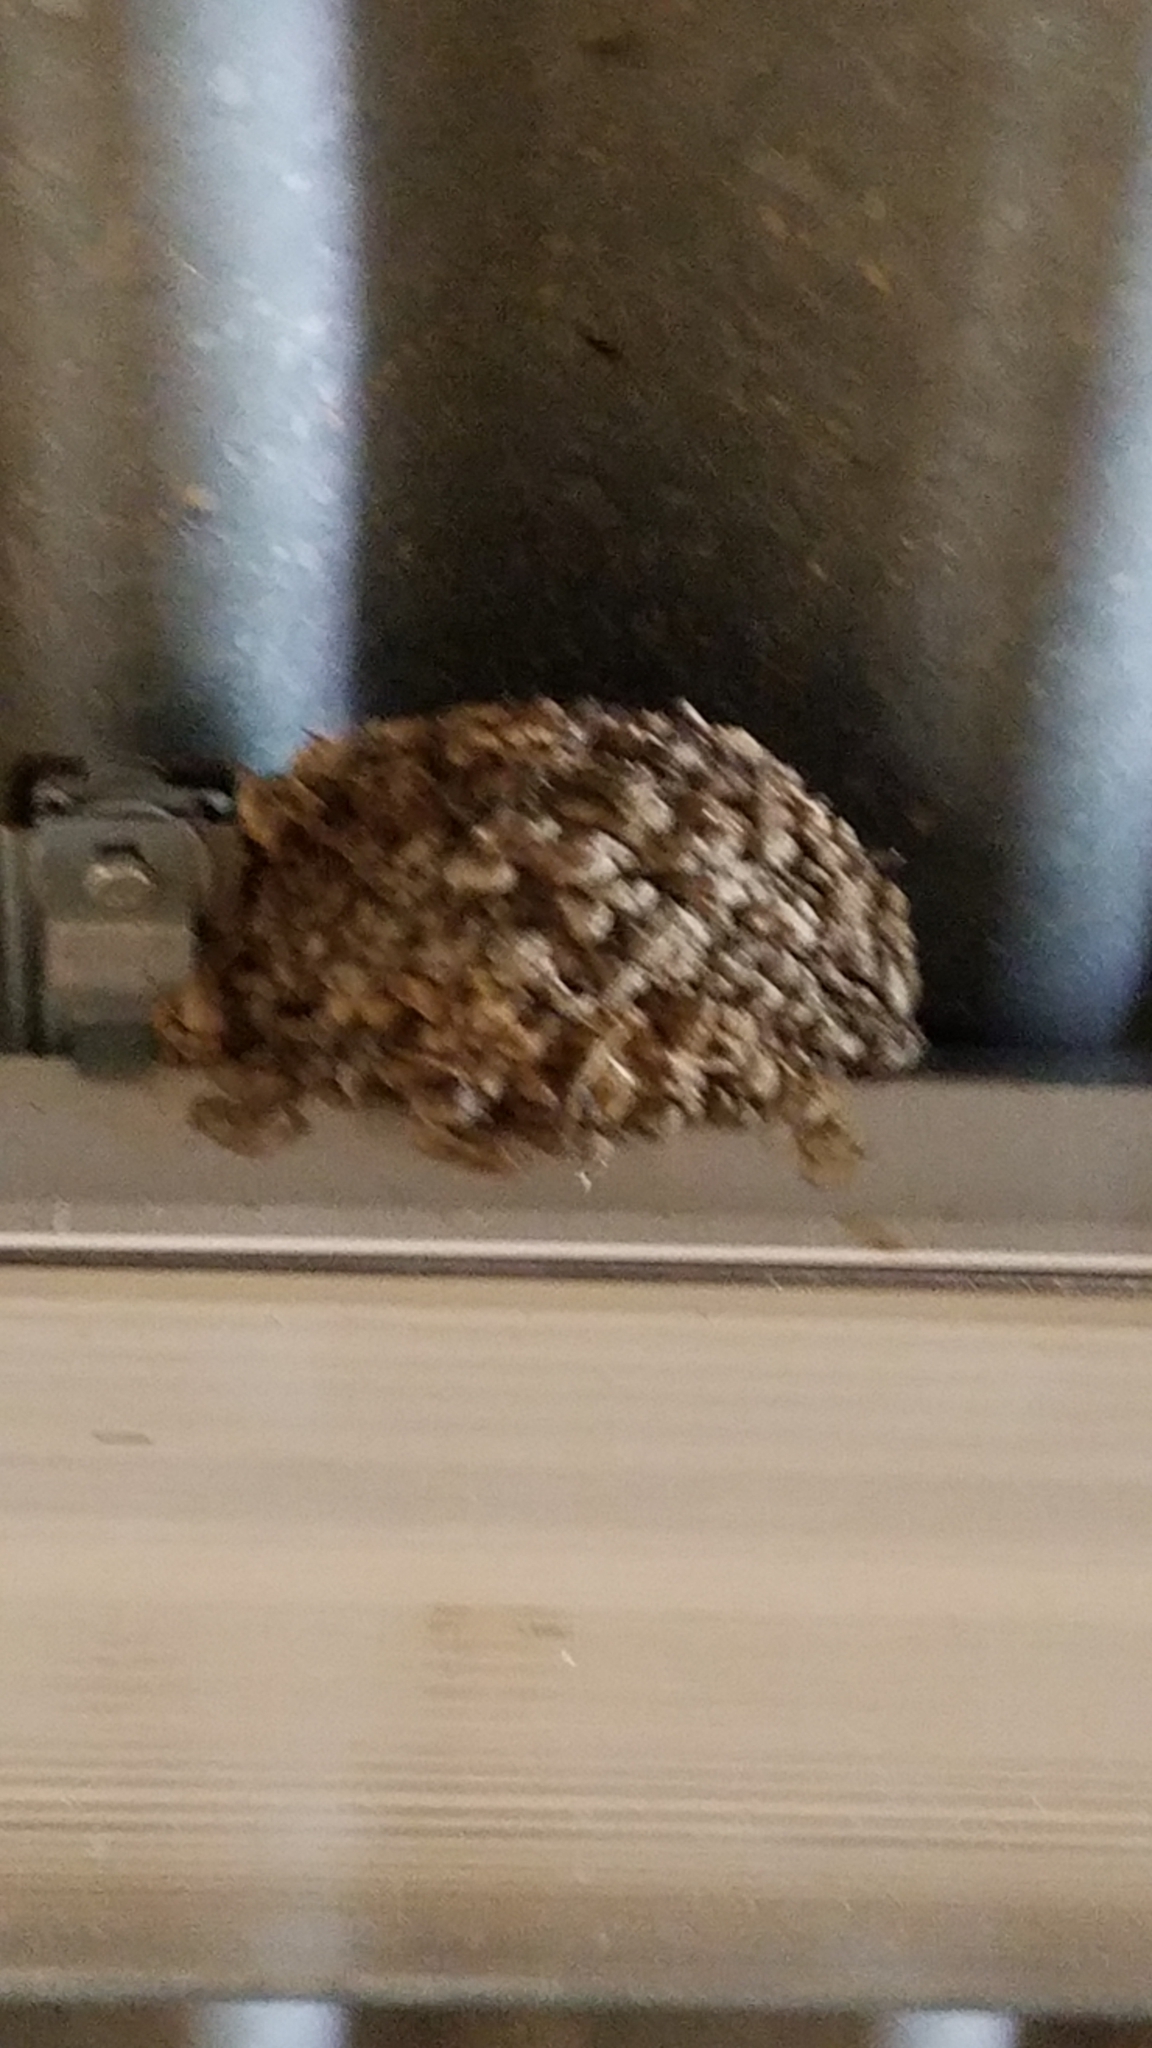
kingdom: Animalia
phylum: Chordata
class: Aves
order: Passeriformes
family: Hirundinidae
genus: Hirundo
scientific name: Hirundo rustica
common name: Barn swallow
